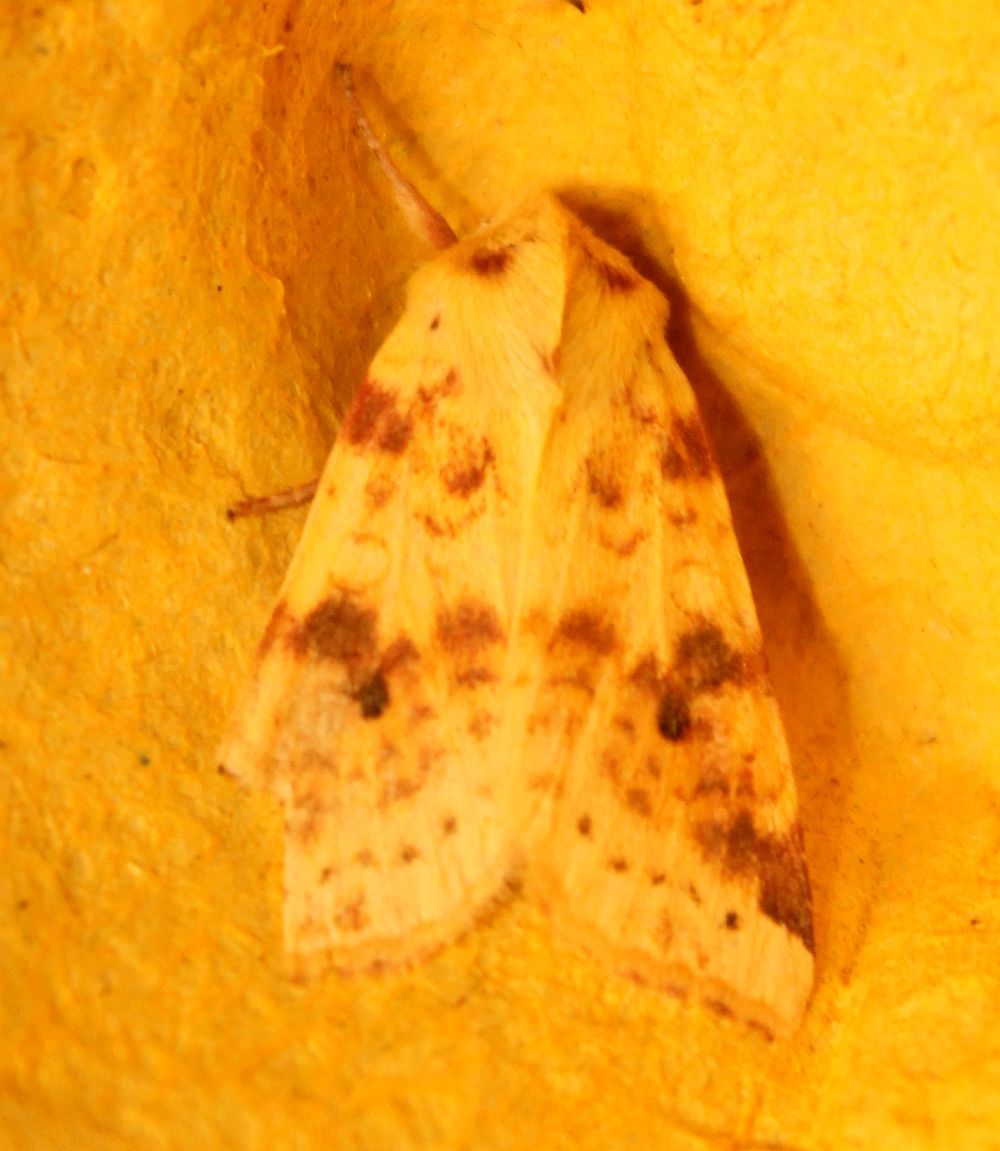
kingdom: Animalia
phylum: Arthropoda
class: Insecta
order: Lepidoptera
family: Noctuidae
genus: Xanthia
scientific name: Xanthia icteritia
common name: The sallow
